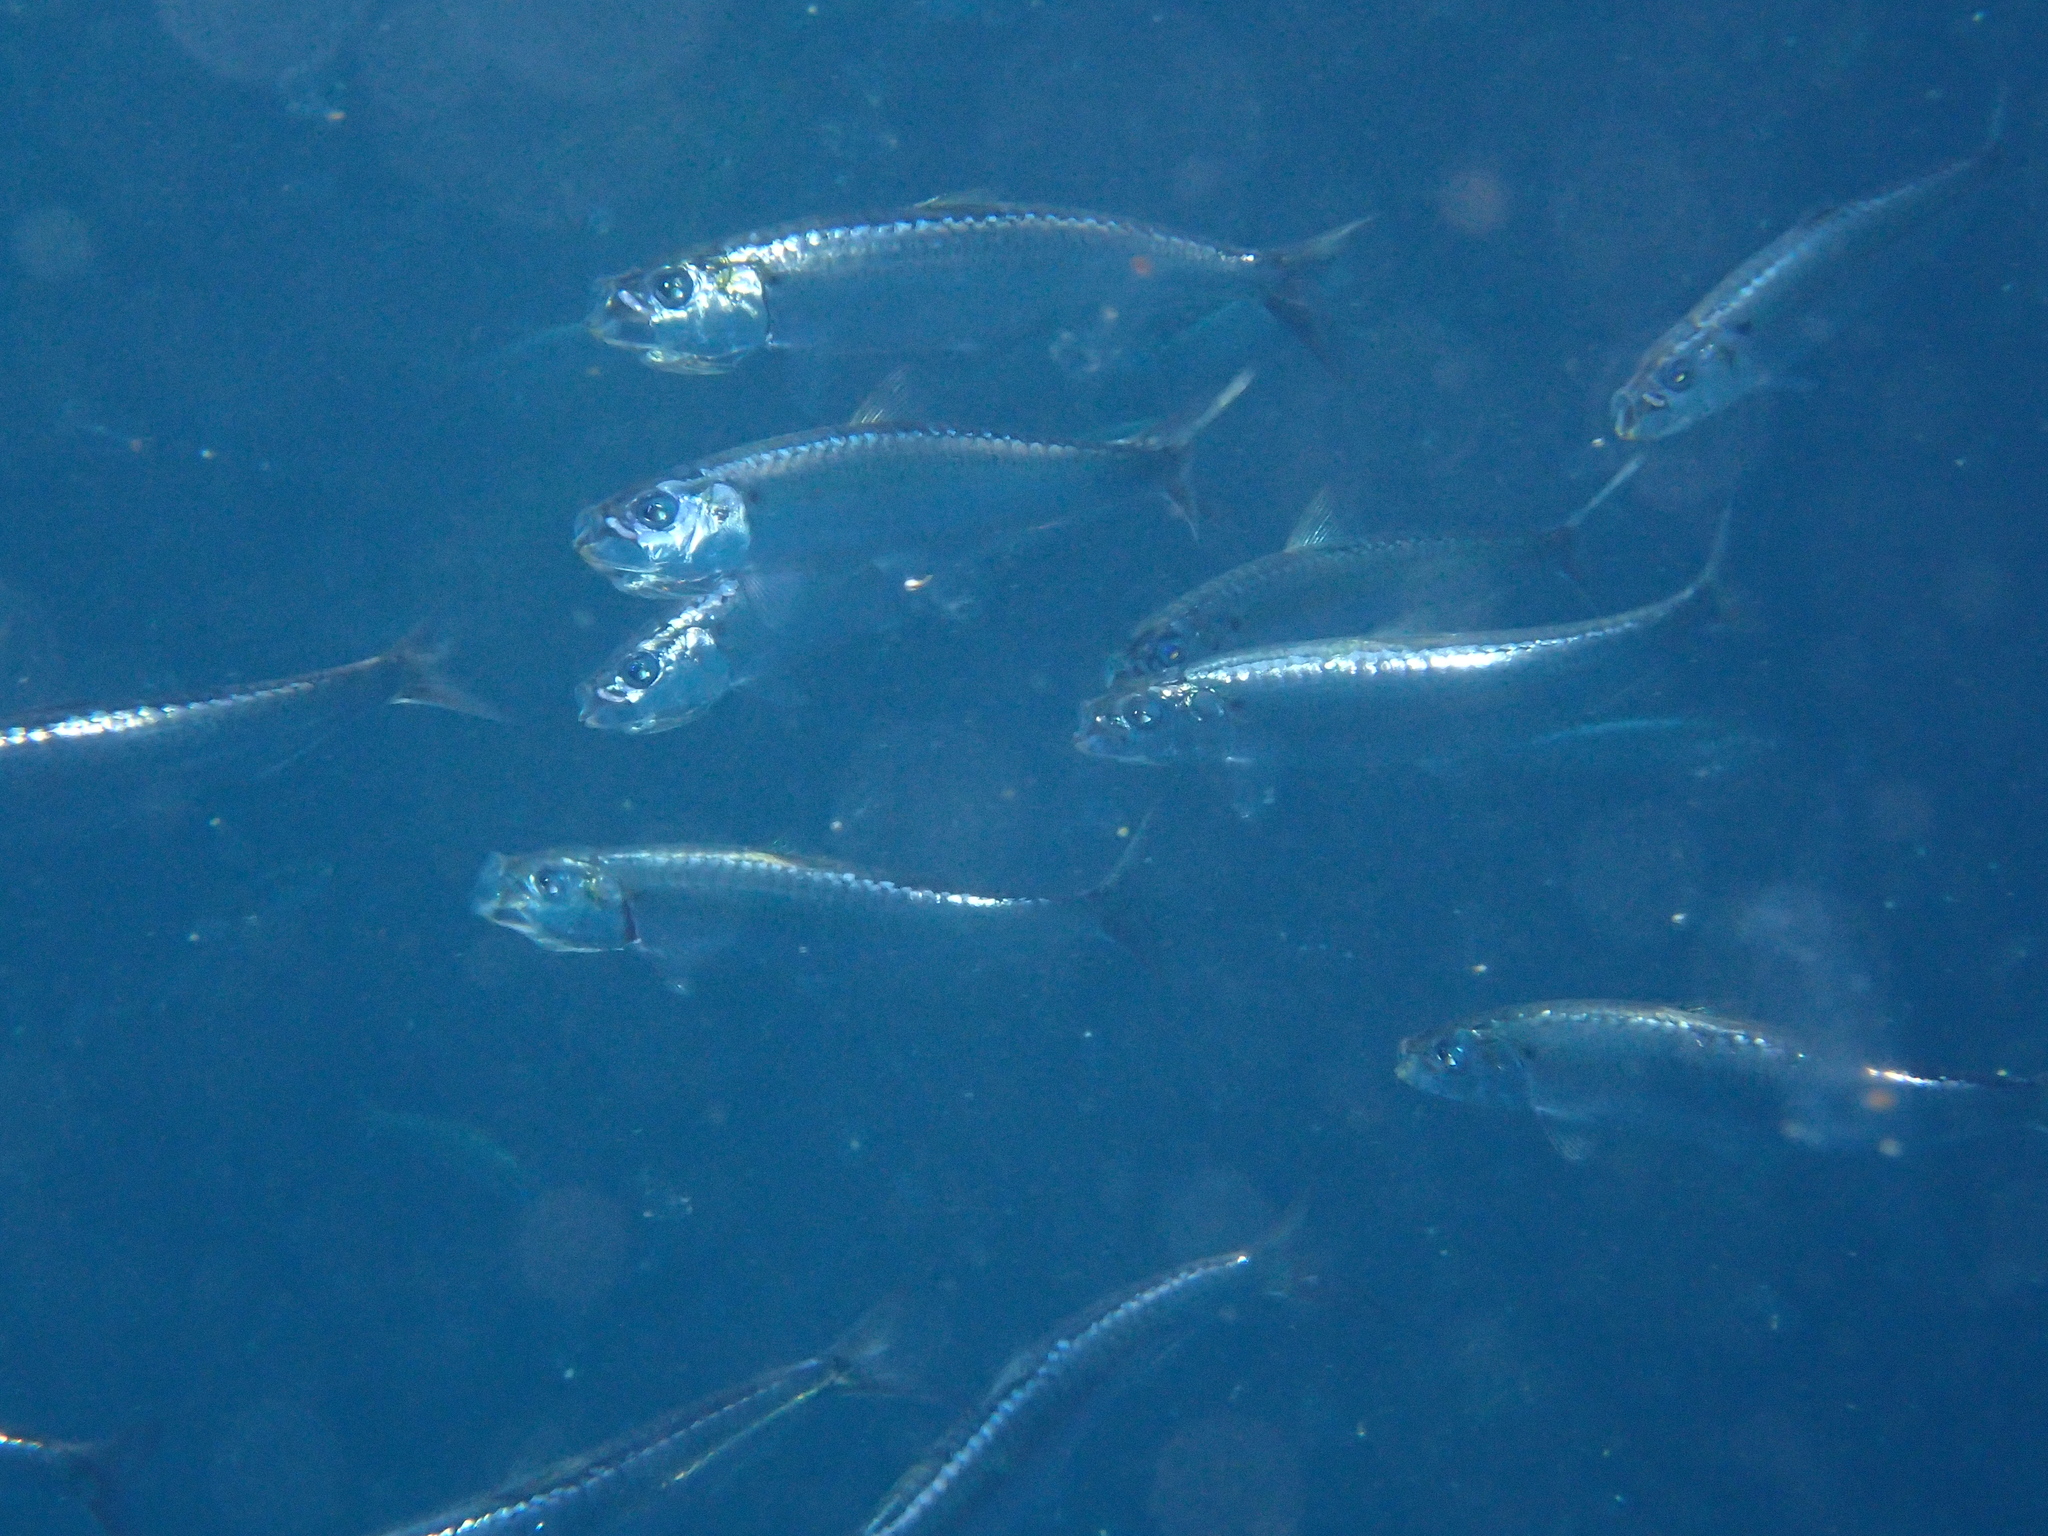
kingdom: Animalia
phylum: Chordata
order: Clupeiformes
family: Clupeidae
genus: Sardina
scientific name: Sardina pilchardus
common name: Pilchard
